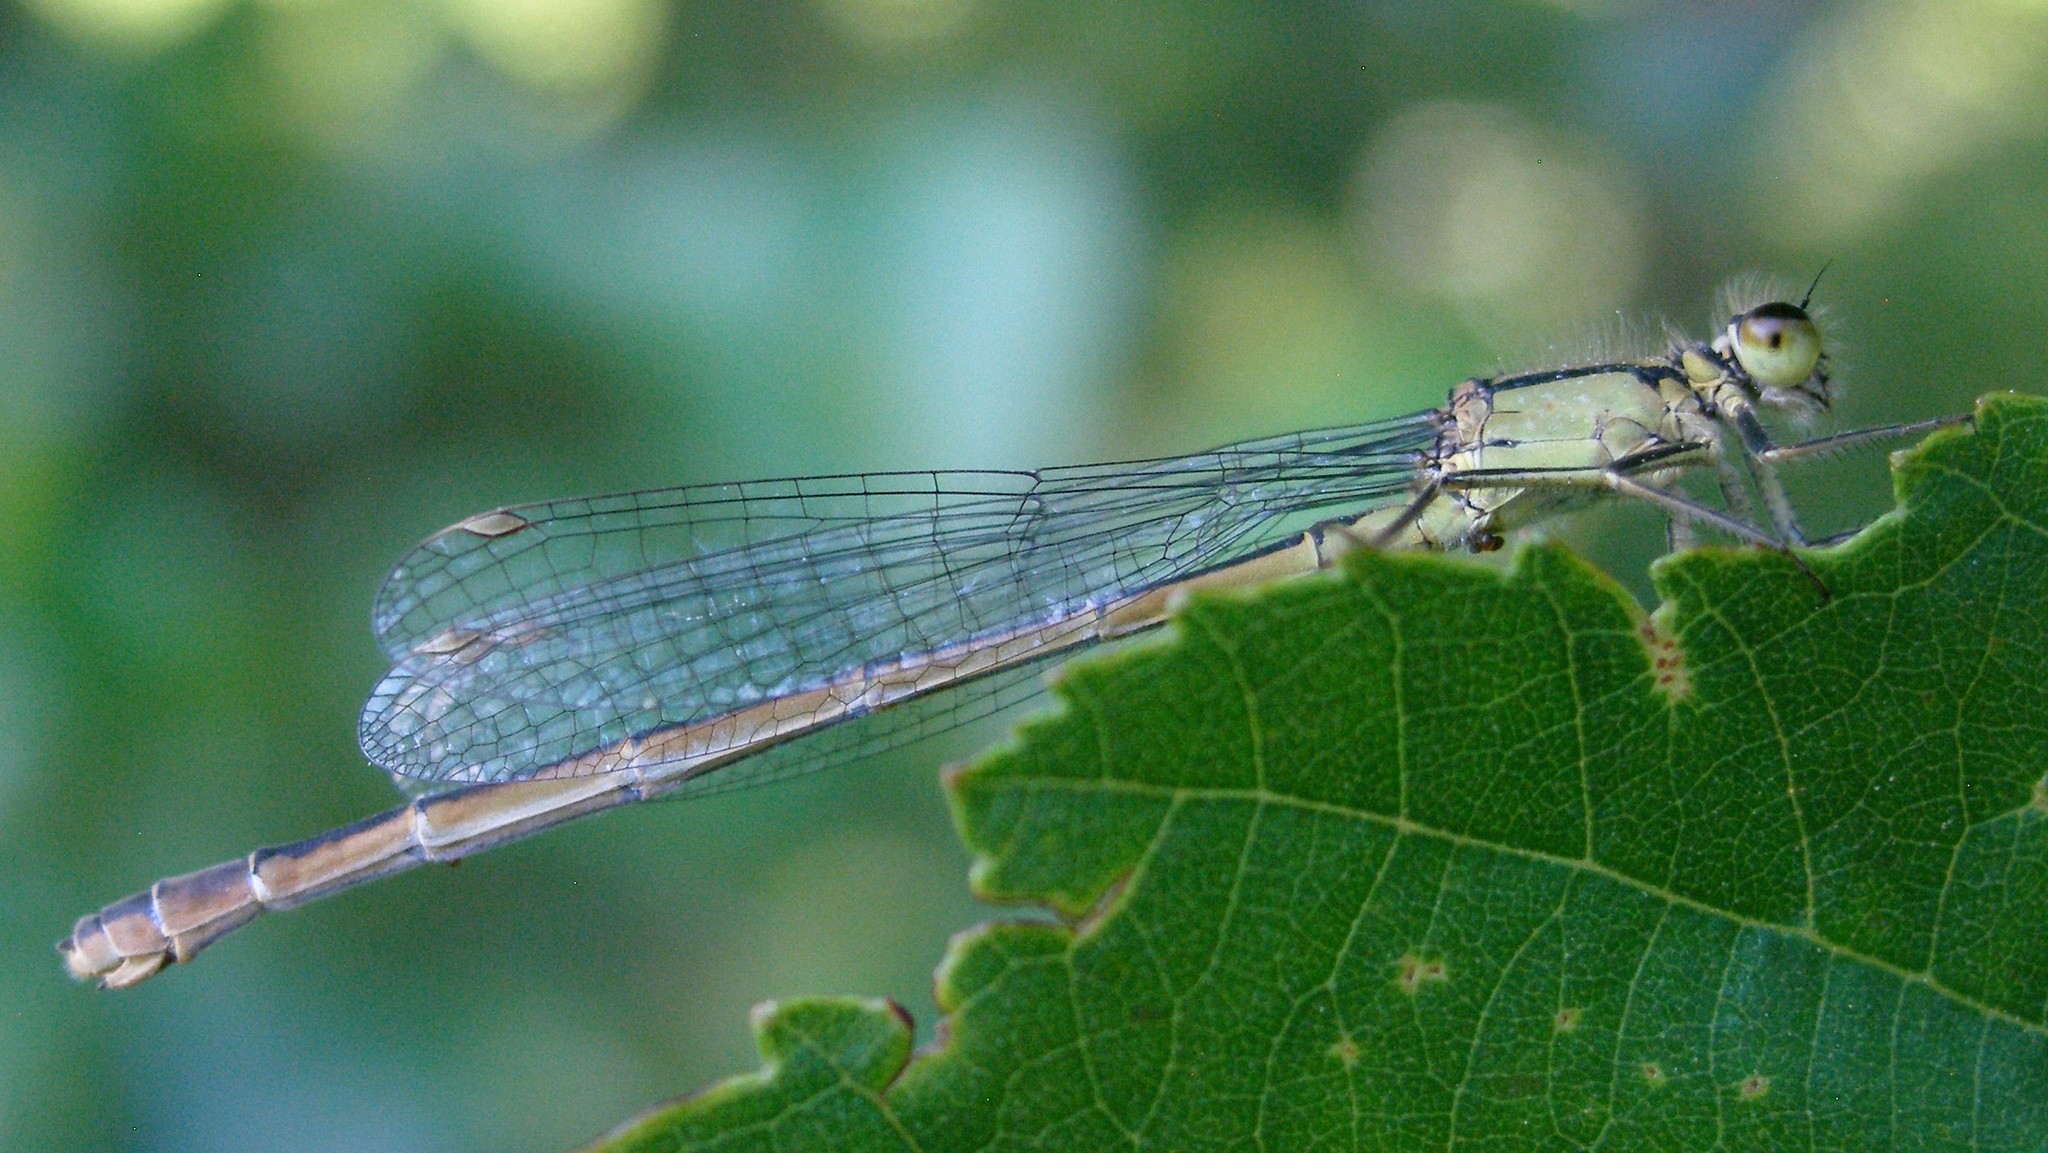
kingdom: Animalia
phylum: Arthropoda
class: Insecta
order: Odonata
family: Coenagrionidae
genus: Ischnura
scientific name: Ischnura elegans
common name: Blue-tailed damselfly
